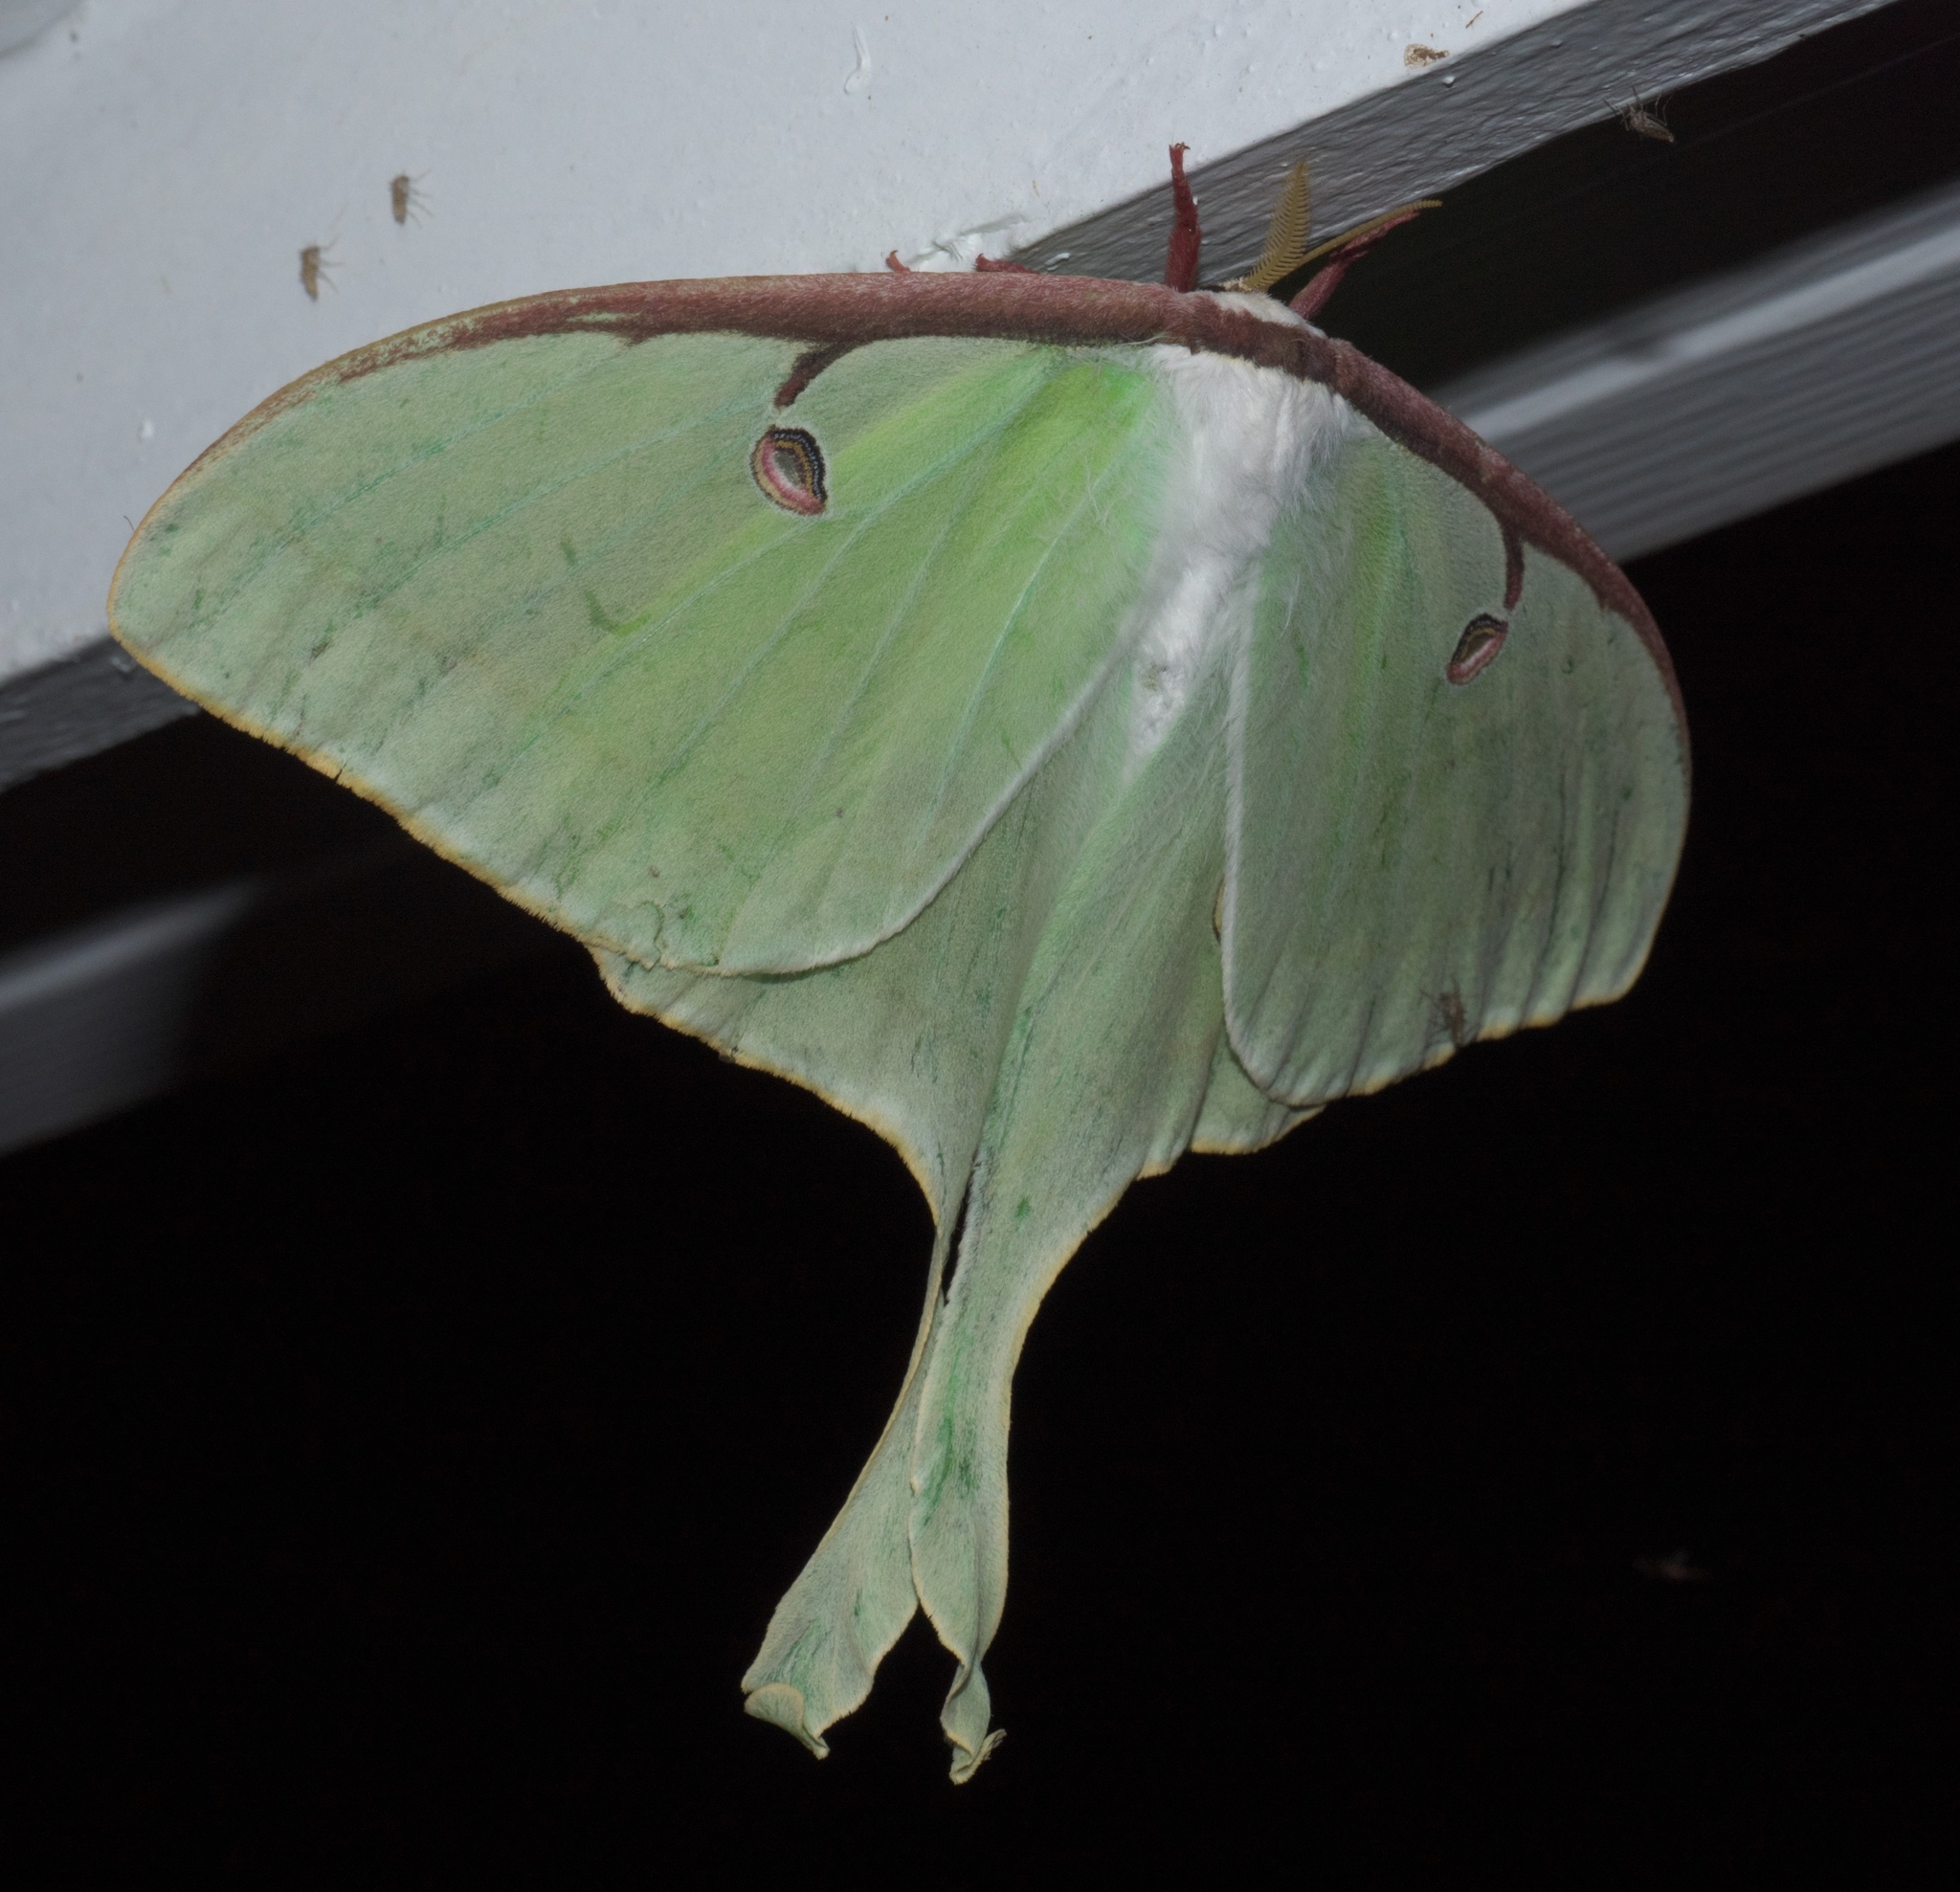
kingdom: Animalia
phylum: Arthropoda
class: Insecta
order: Lepidoptera
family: Saturniidae
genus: Actias
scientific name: Actias luna
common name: Luna moth
